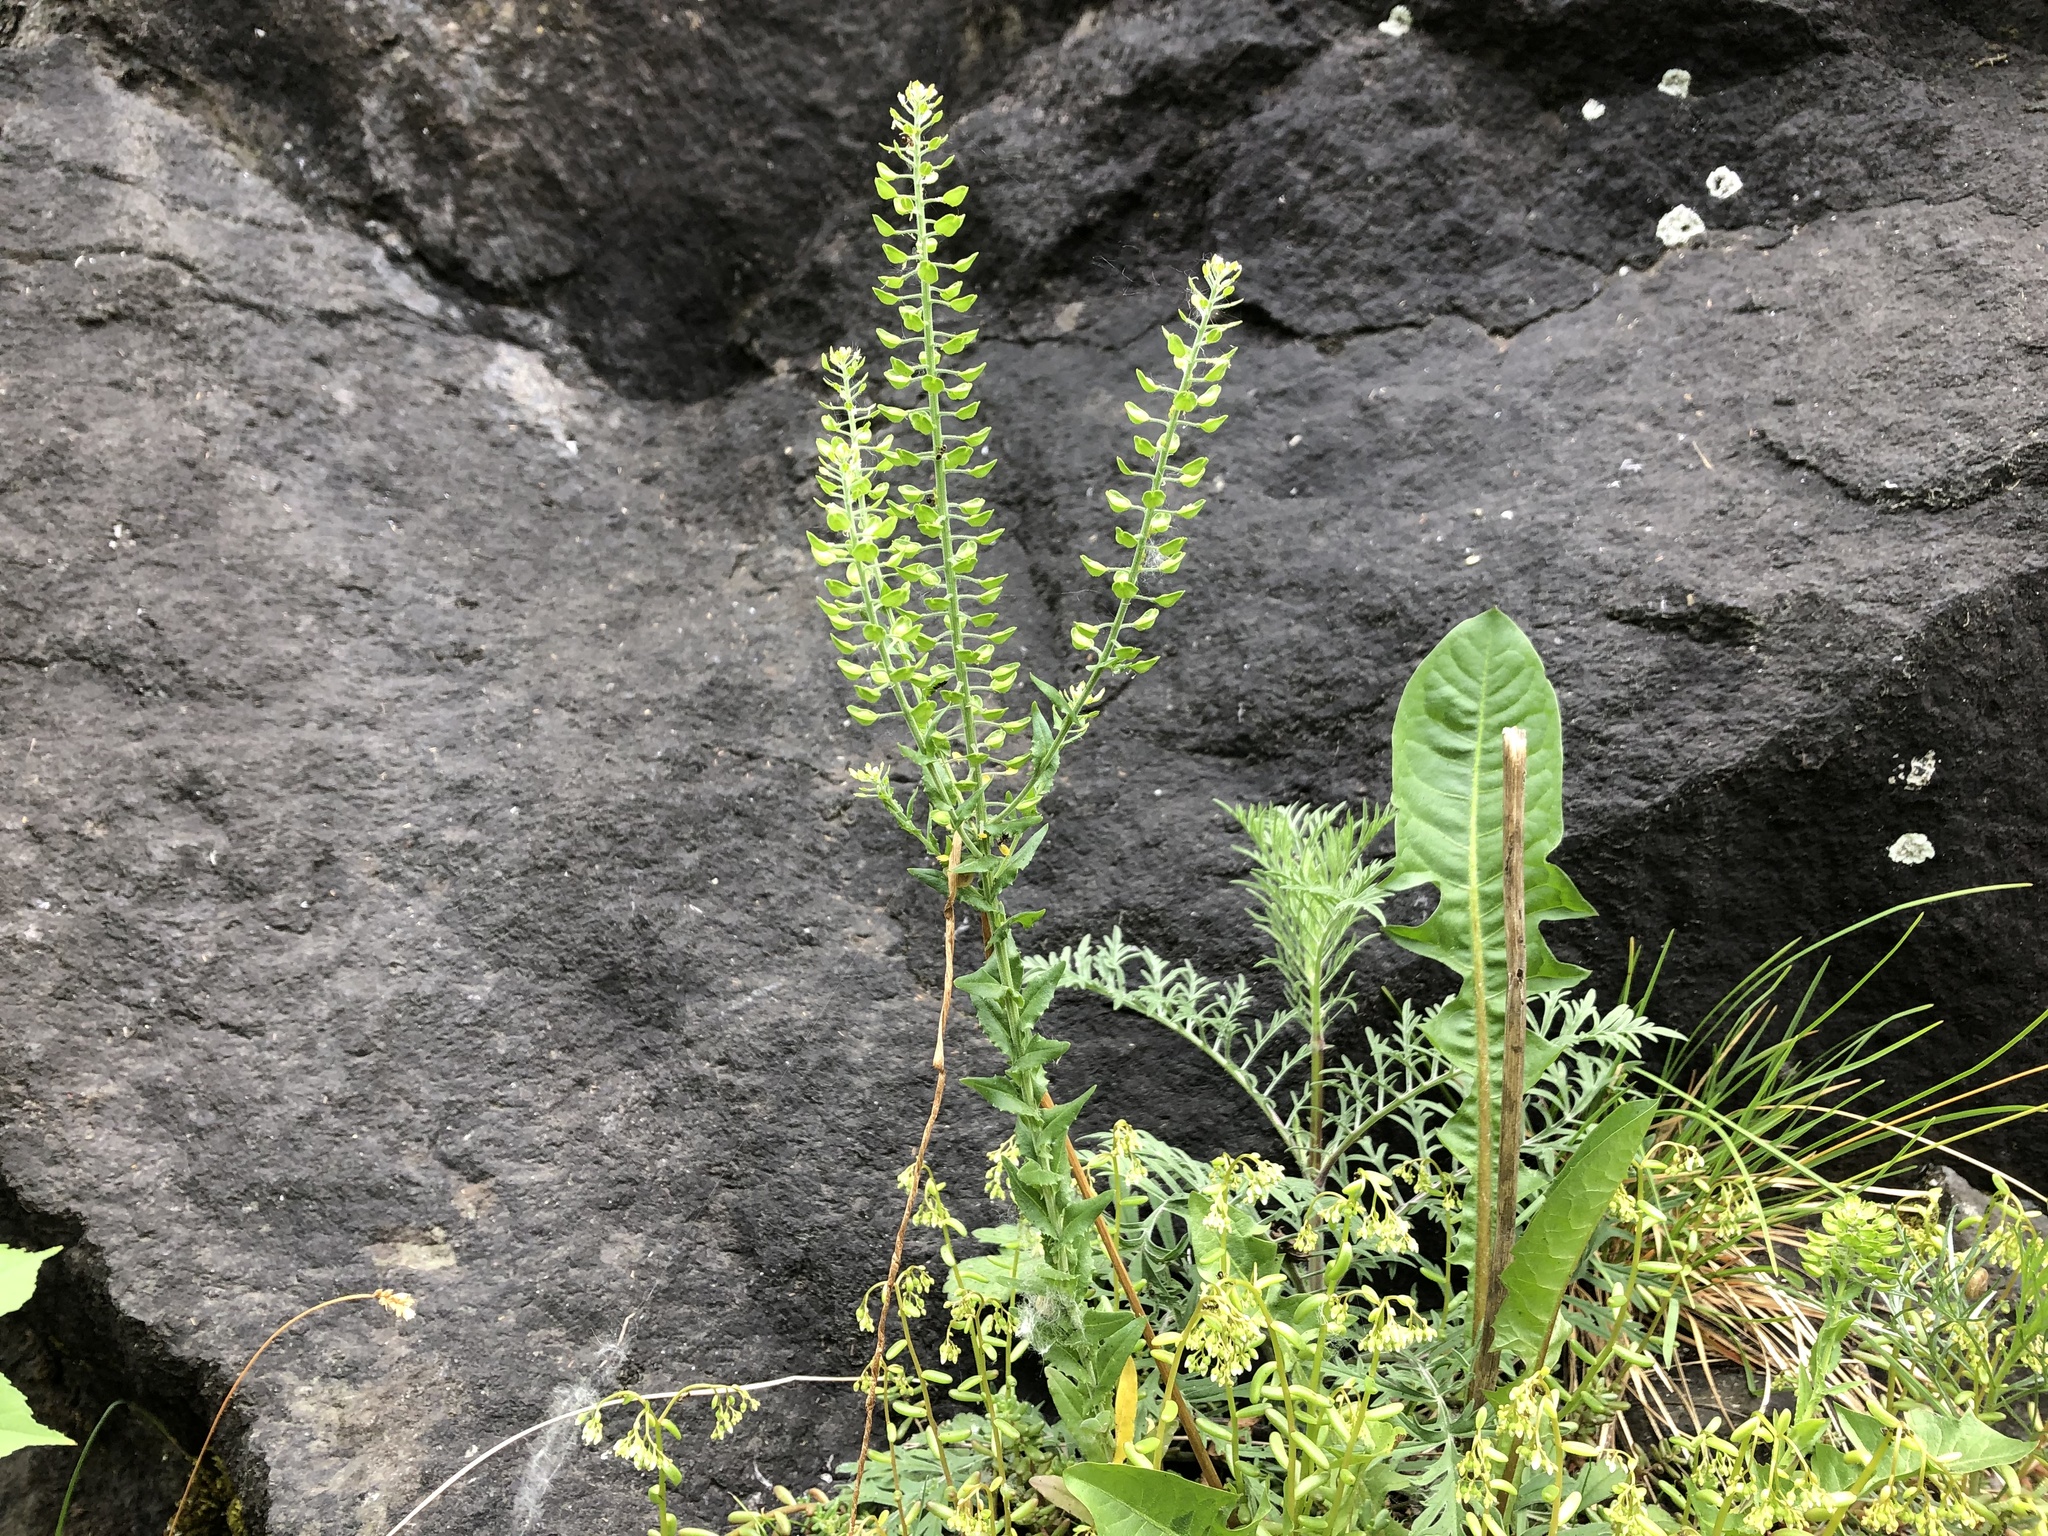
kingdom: Plantae
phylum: Tracheophyta
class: Magnoliopsida
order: Brassicales
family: Brassicaceae
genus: Lepidium
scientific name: Lepidium campestre
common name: Field pepperwort
